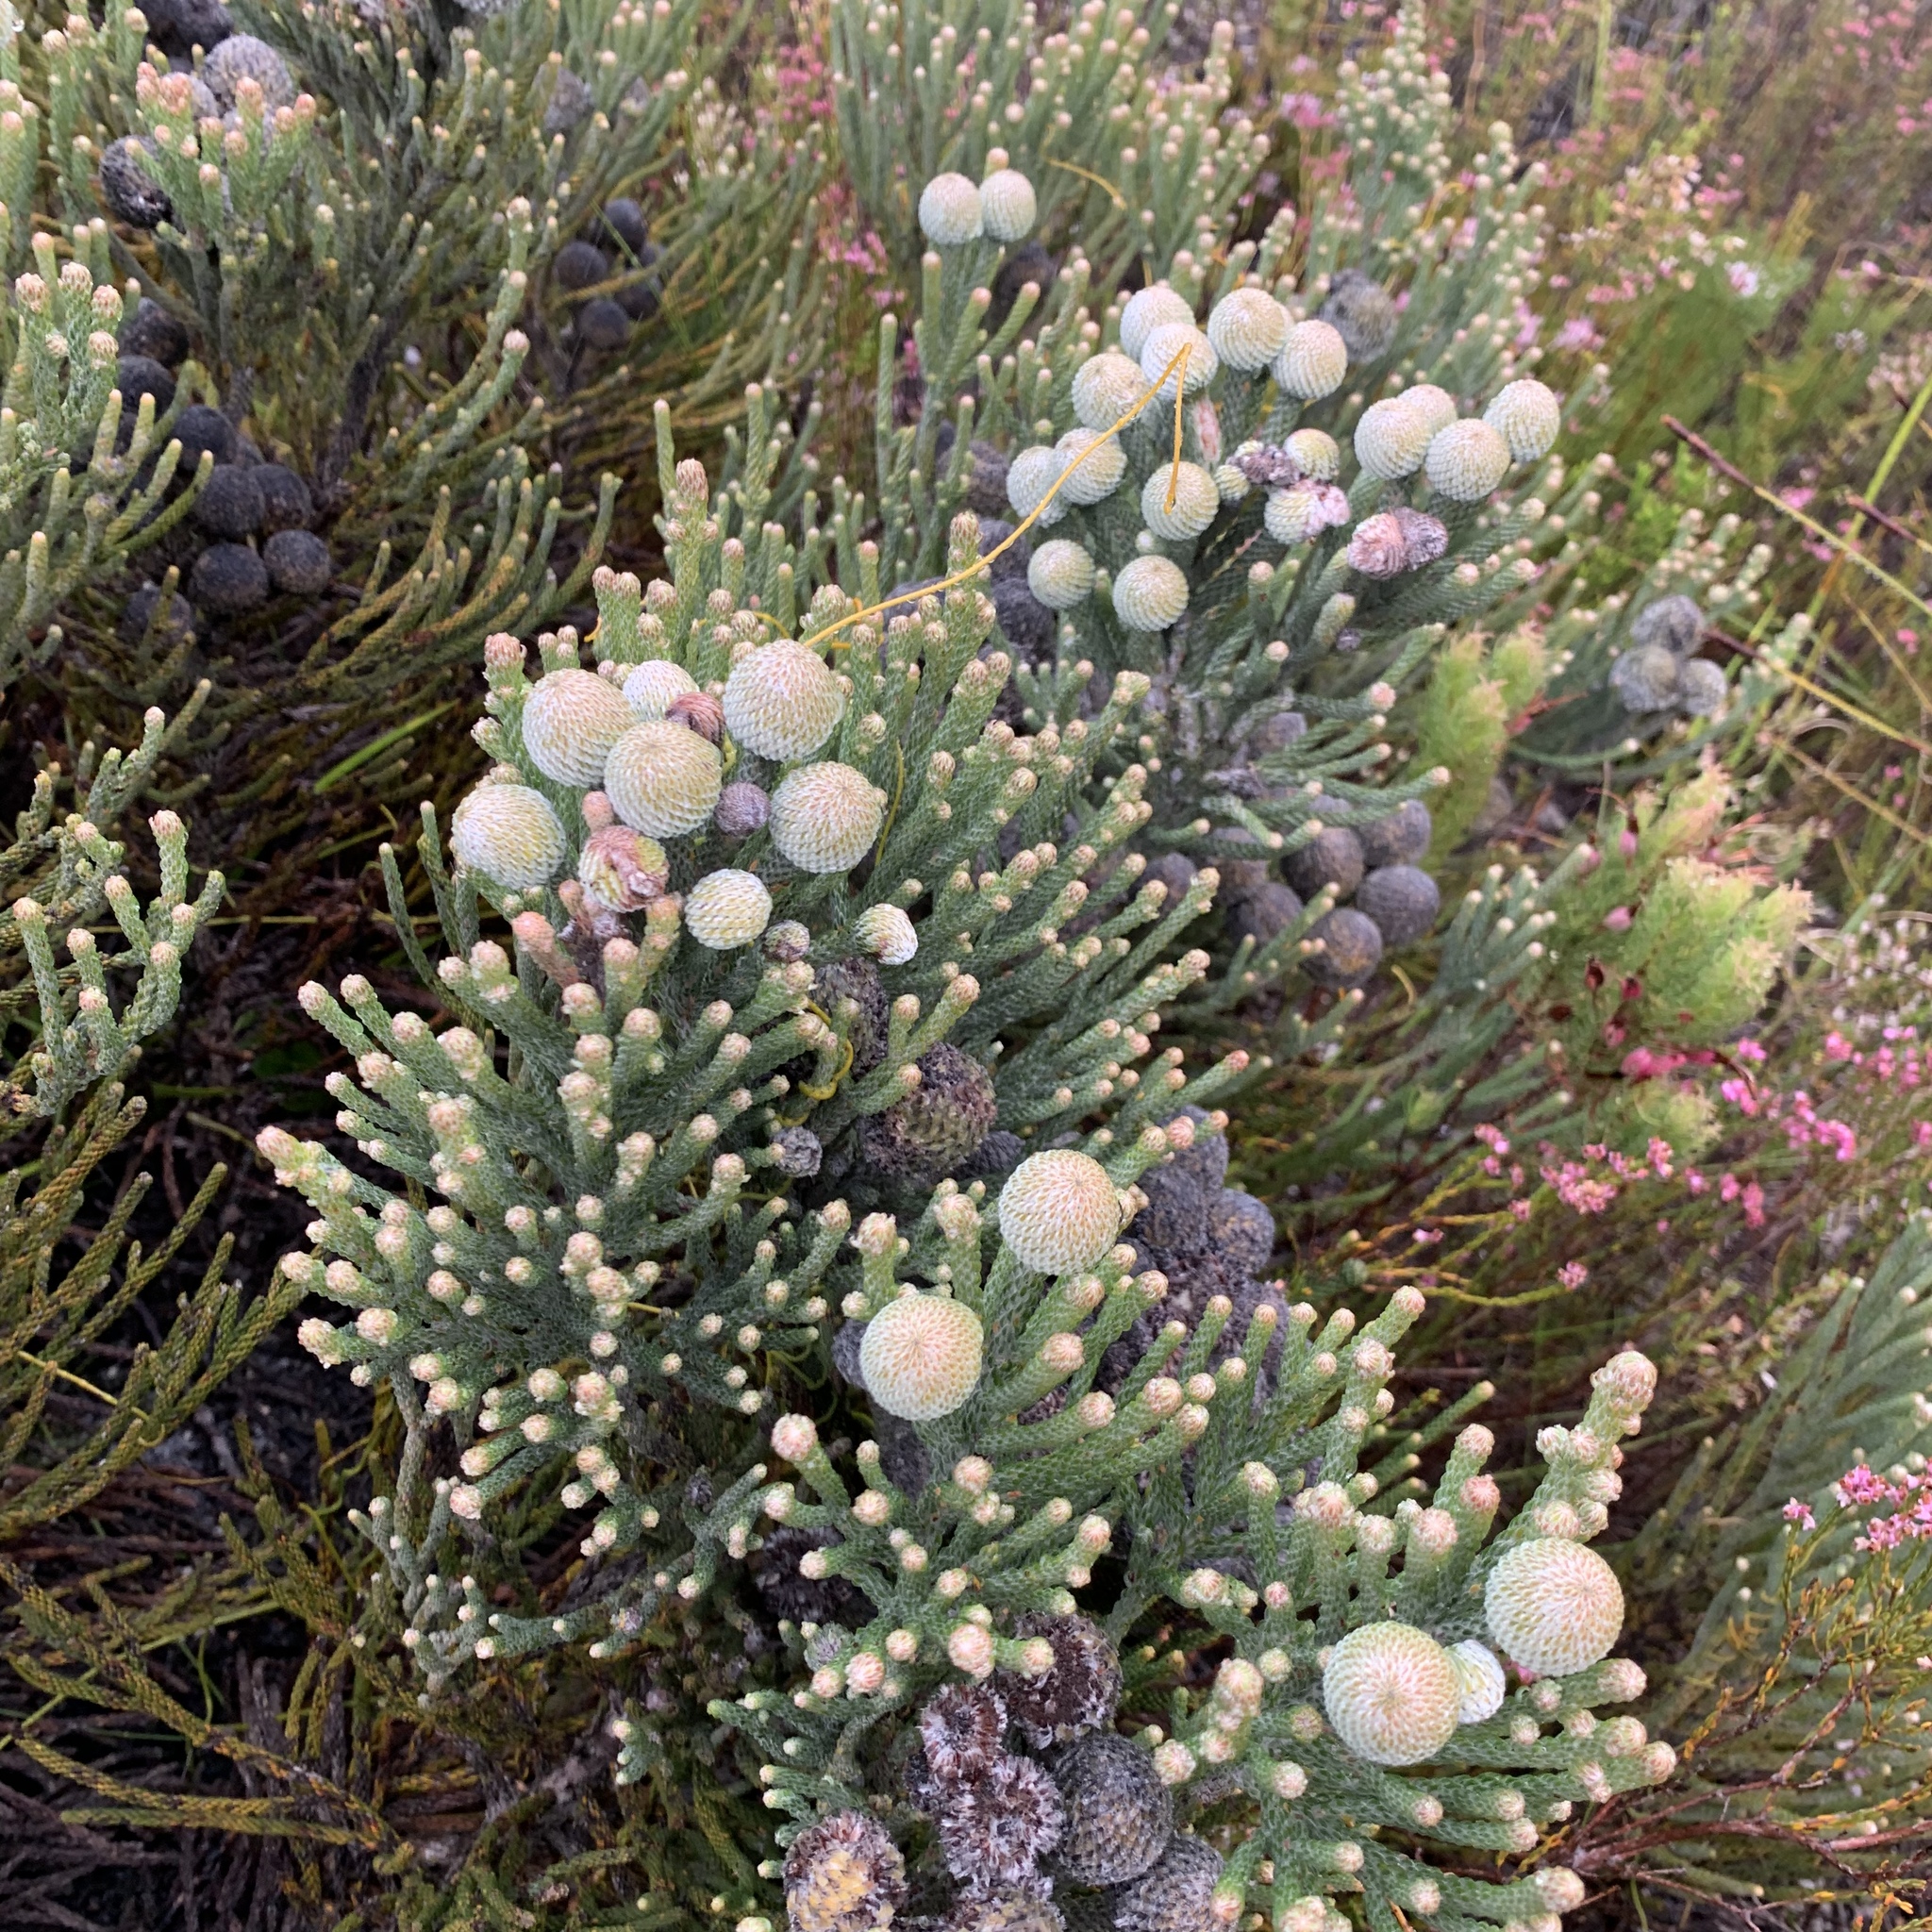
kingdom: Plantae
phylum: Tracheophyta
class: Magnoliopsida
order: Bruniales
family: Bruniaceae
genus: Brunia
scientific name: Brunia laevis
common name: Silver brunia
